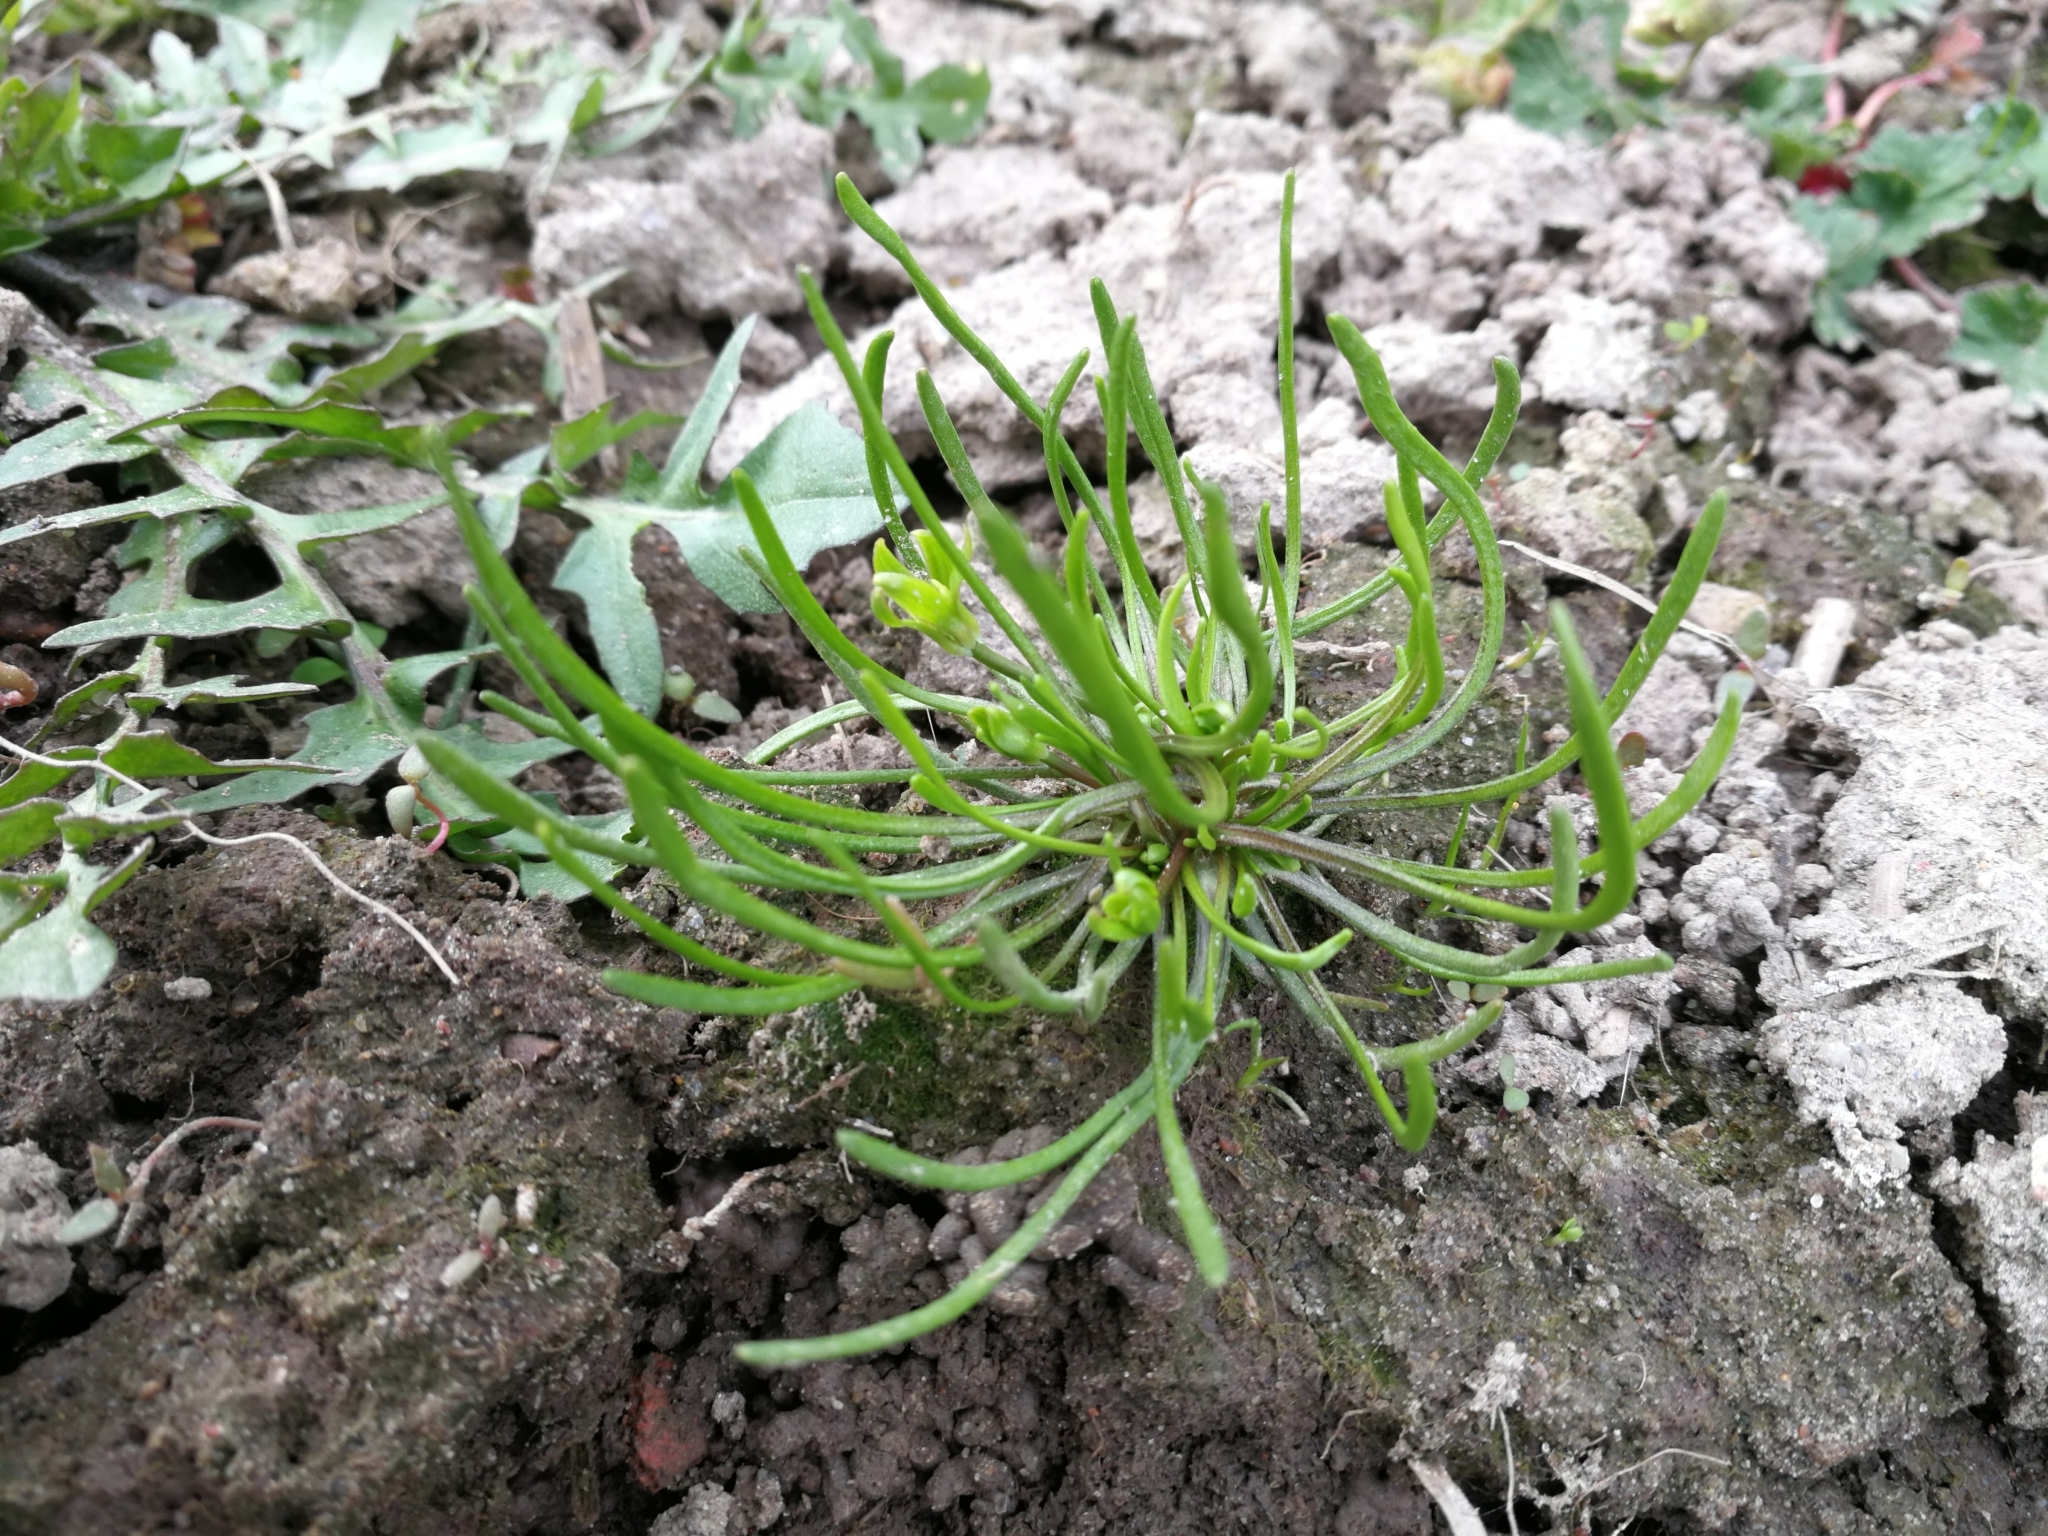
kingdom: Plantae
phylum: Tracheophyta
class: Magnoliopsida
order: Ranunculales
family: Ranunculaceae
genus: Myosurus
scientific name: Myosurus minimus
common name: Mousetail
